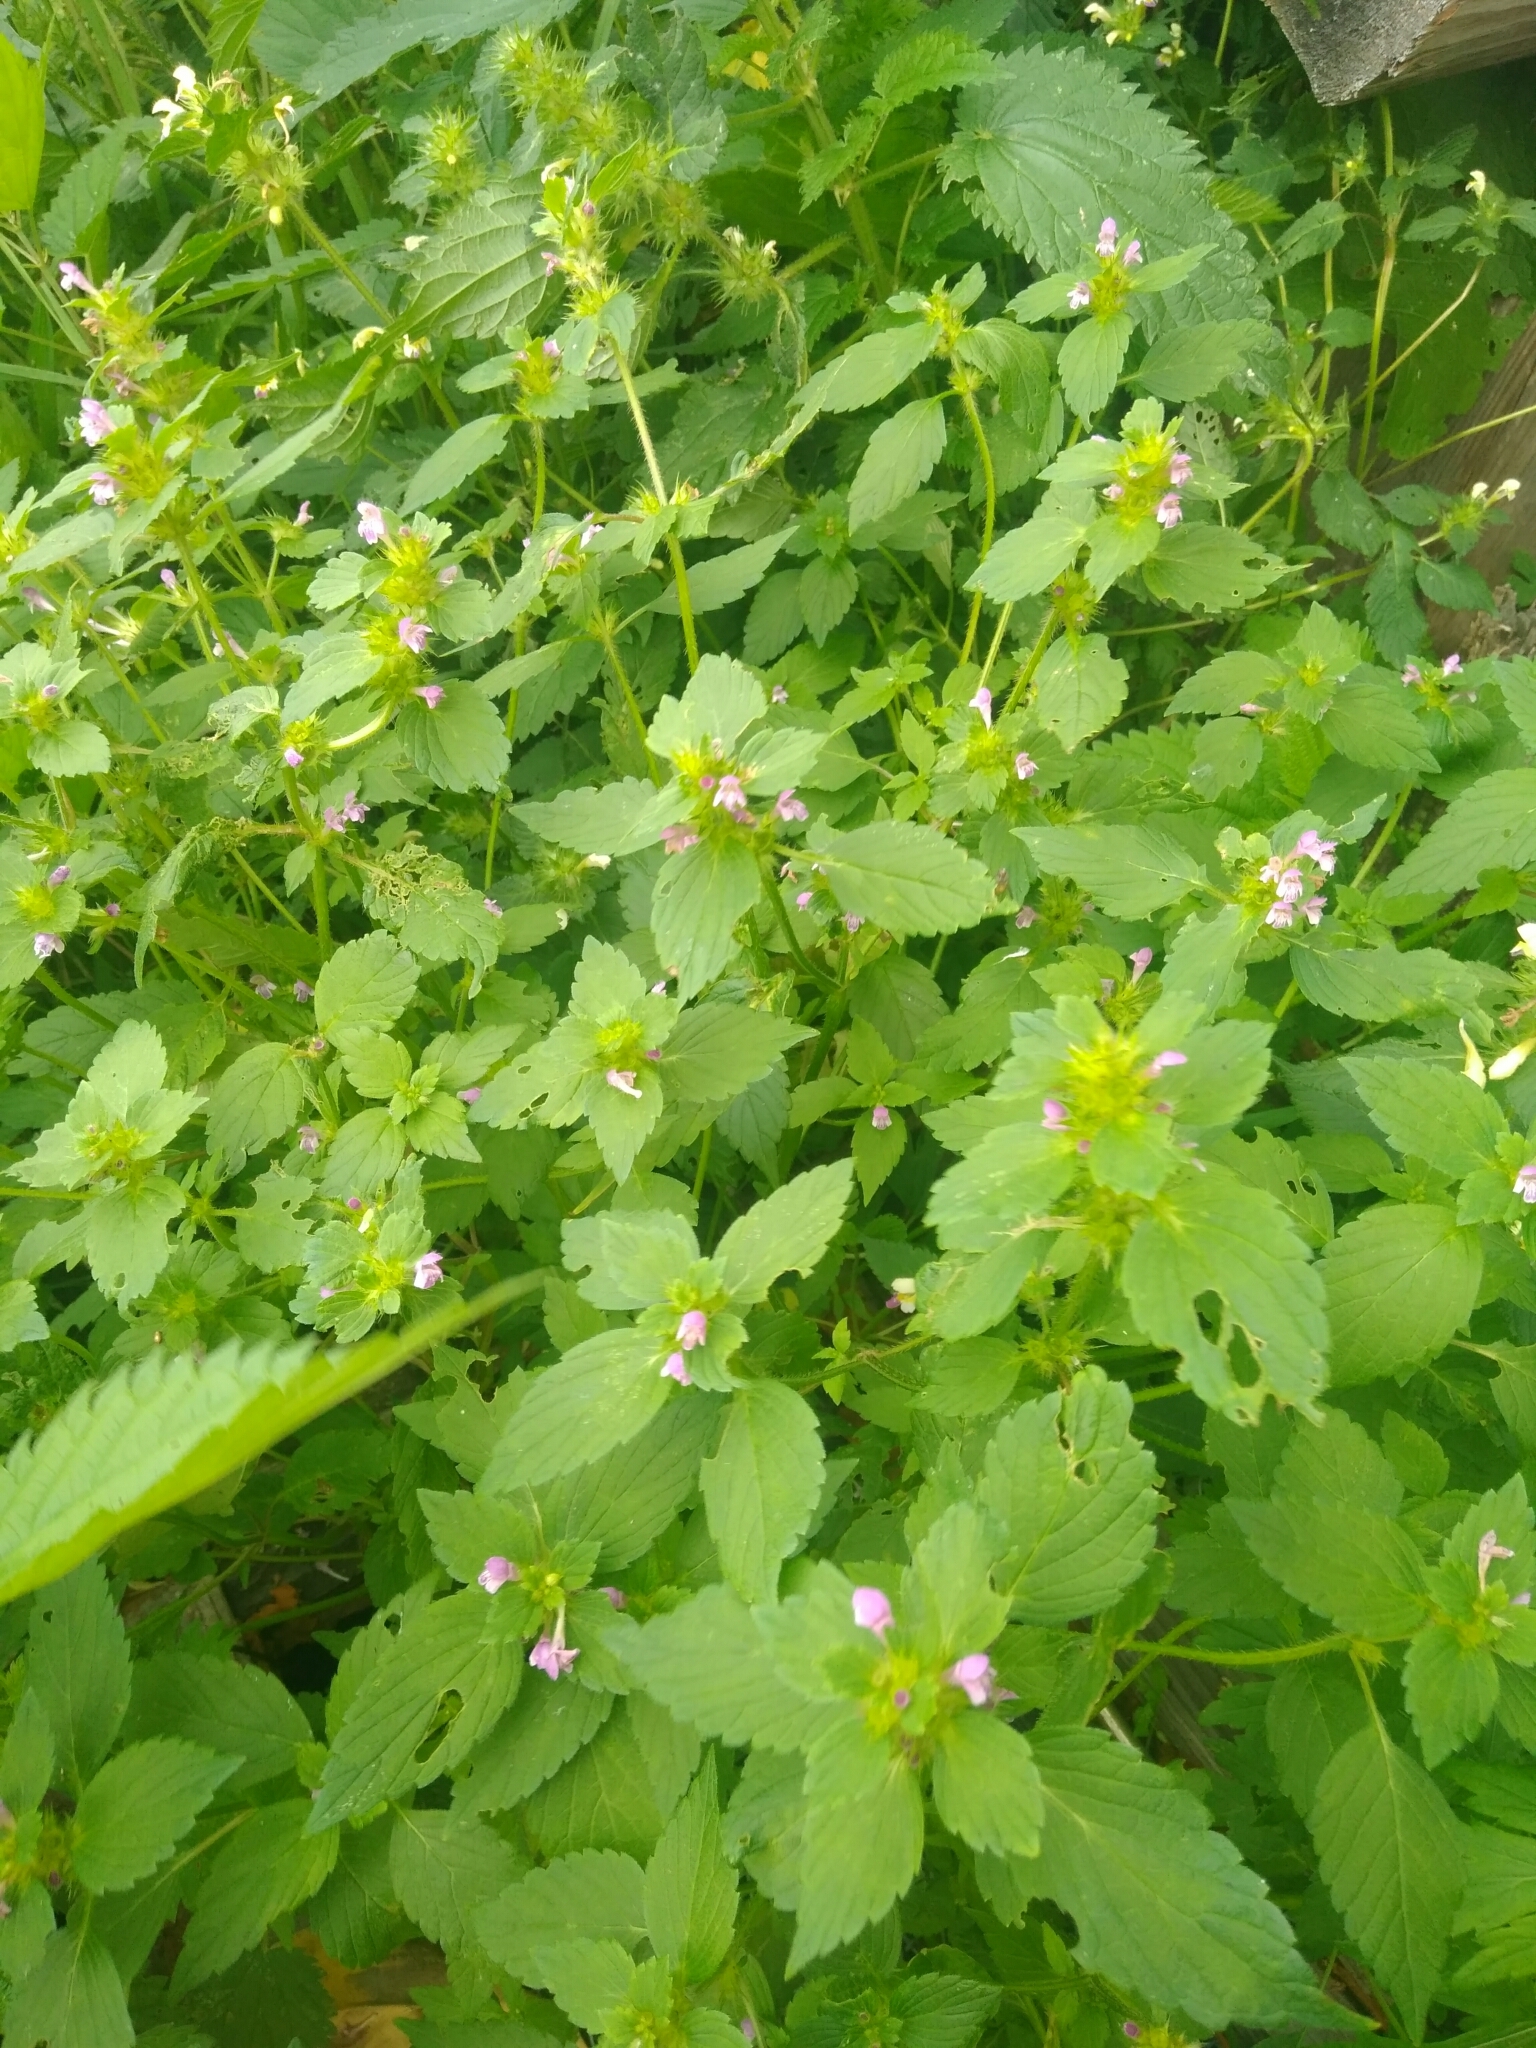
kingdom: Plantae
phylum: Tracheophyta
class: Magnoliopsida
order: Lamiales
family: Lamiaceae
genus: Galeopsis
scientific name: Galeopsis bifida
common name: Bifid hemp-nettle
